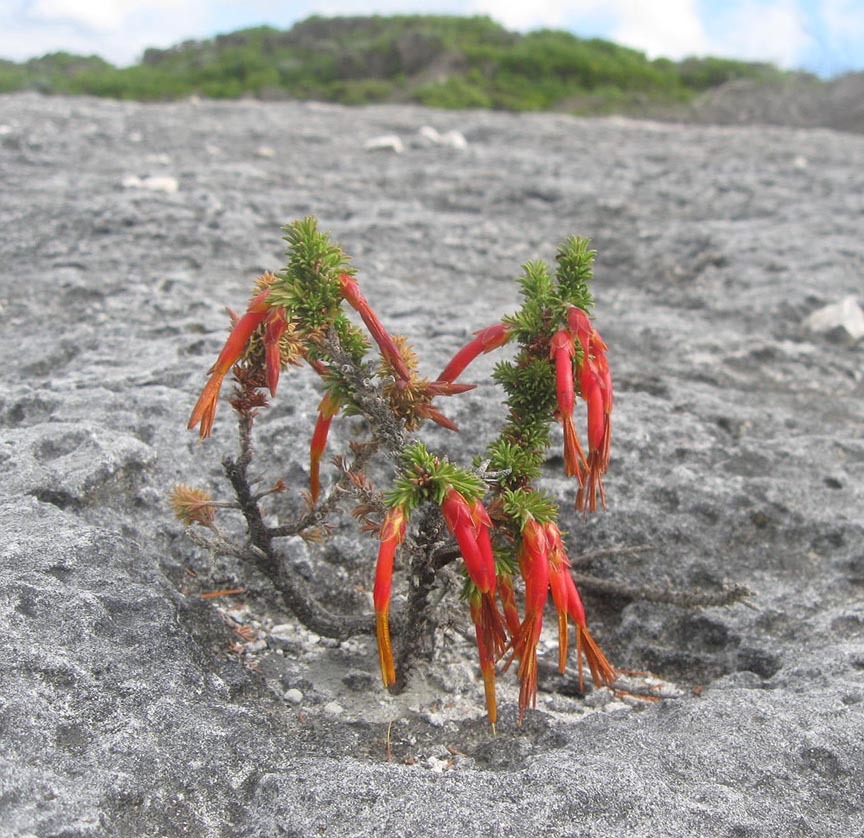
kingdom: Plantae
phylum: Tracheophyta
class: Magnoliopsida
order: Ericales
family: Ericaceae
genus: Erica
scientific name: Erica coccinea
